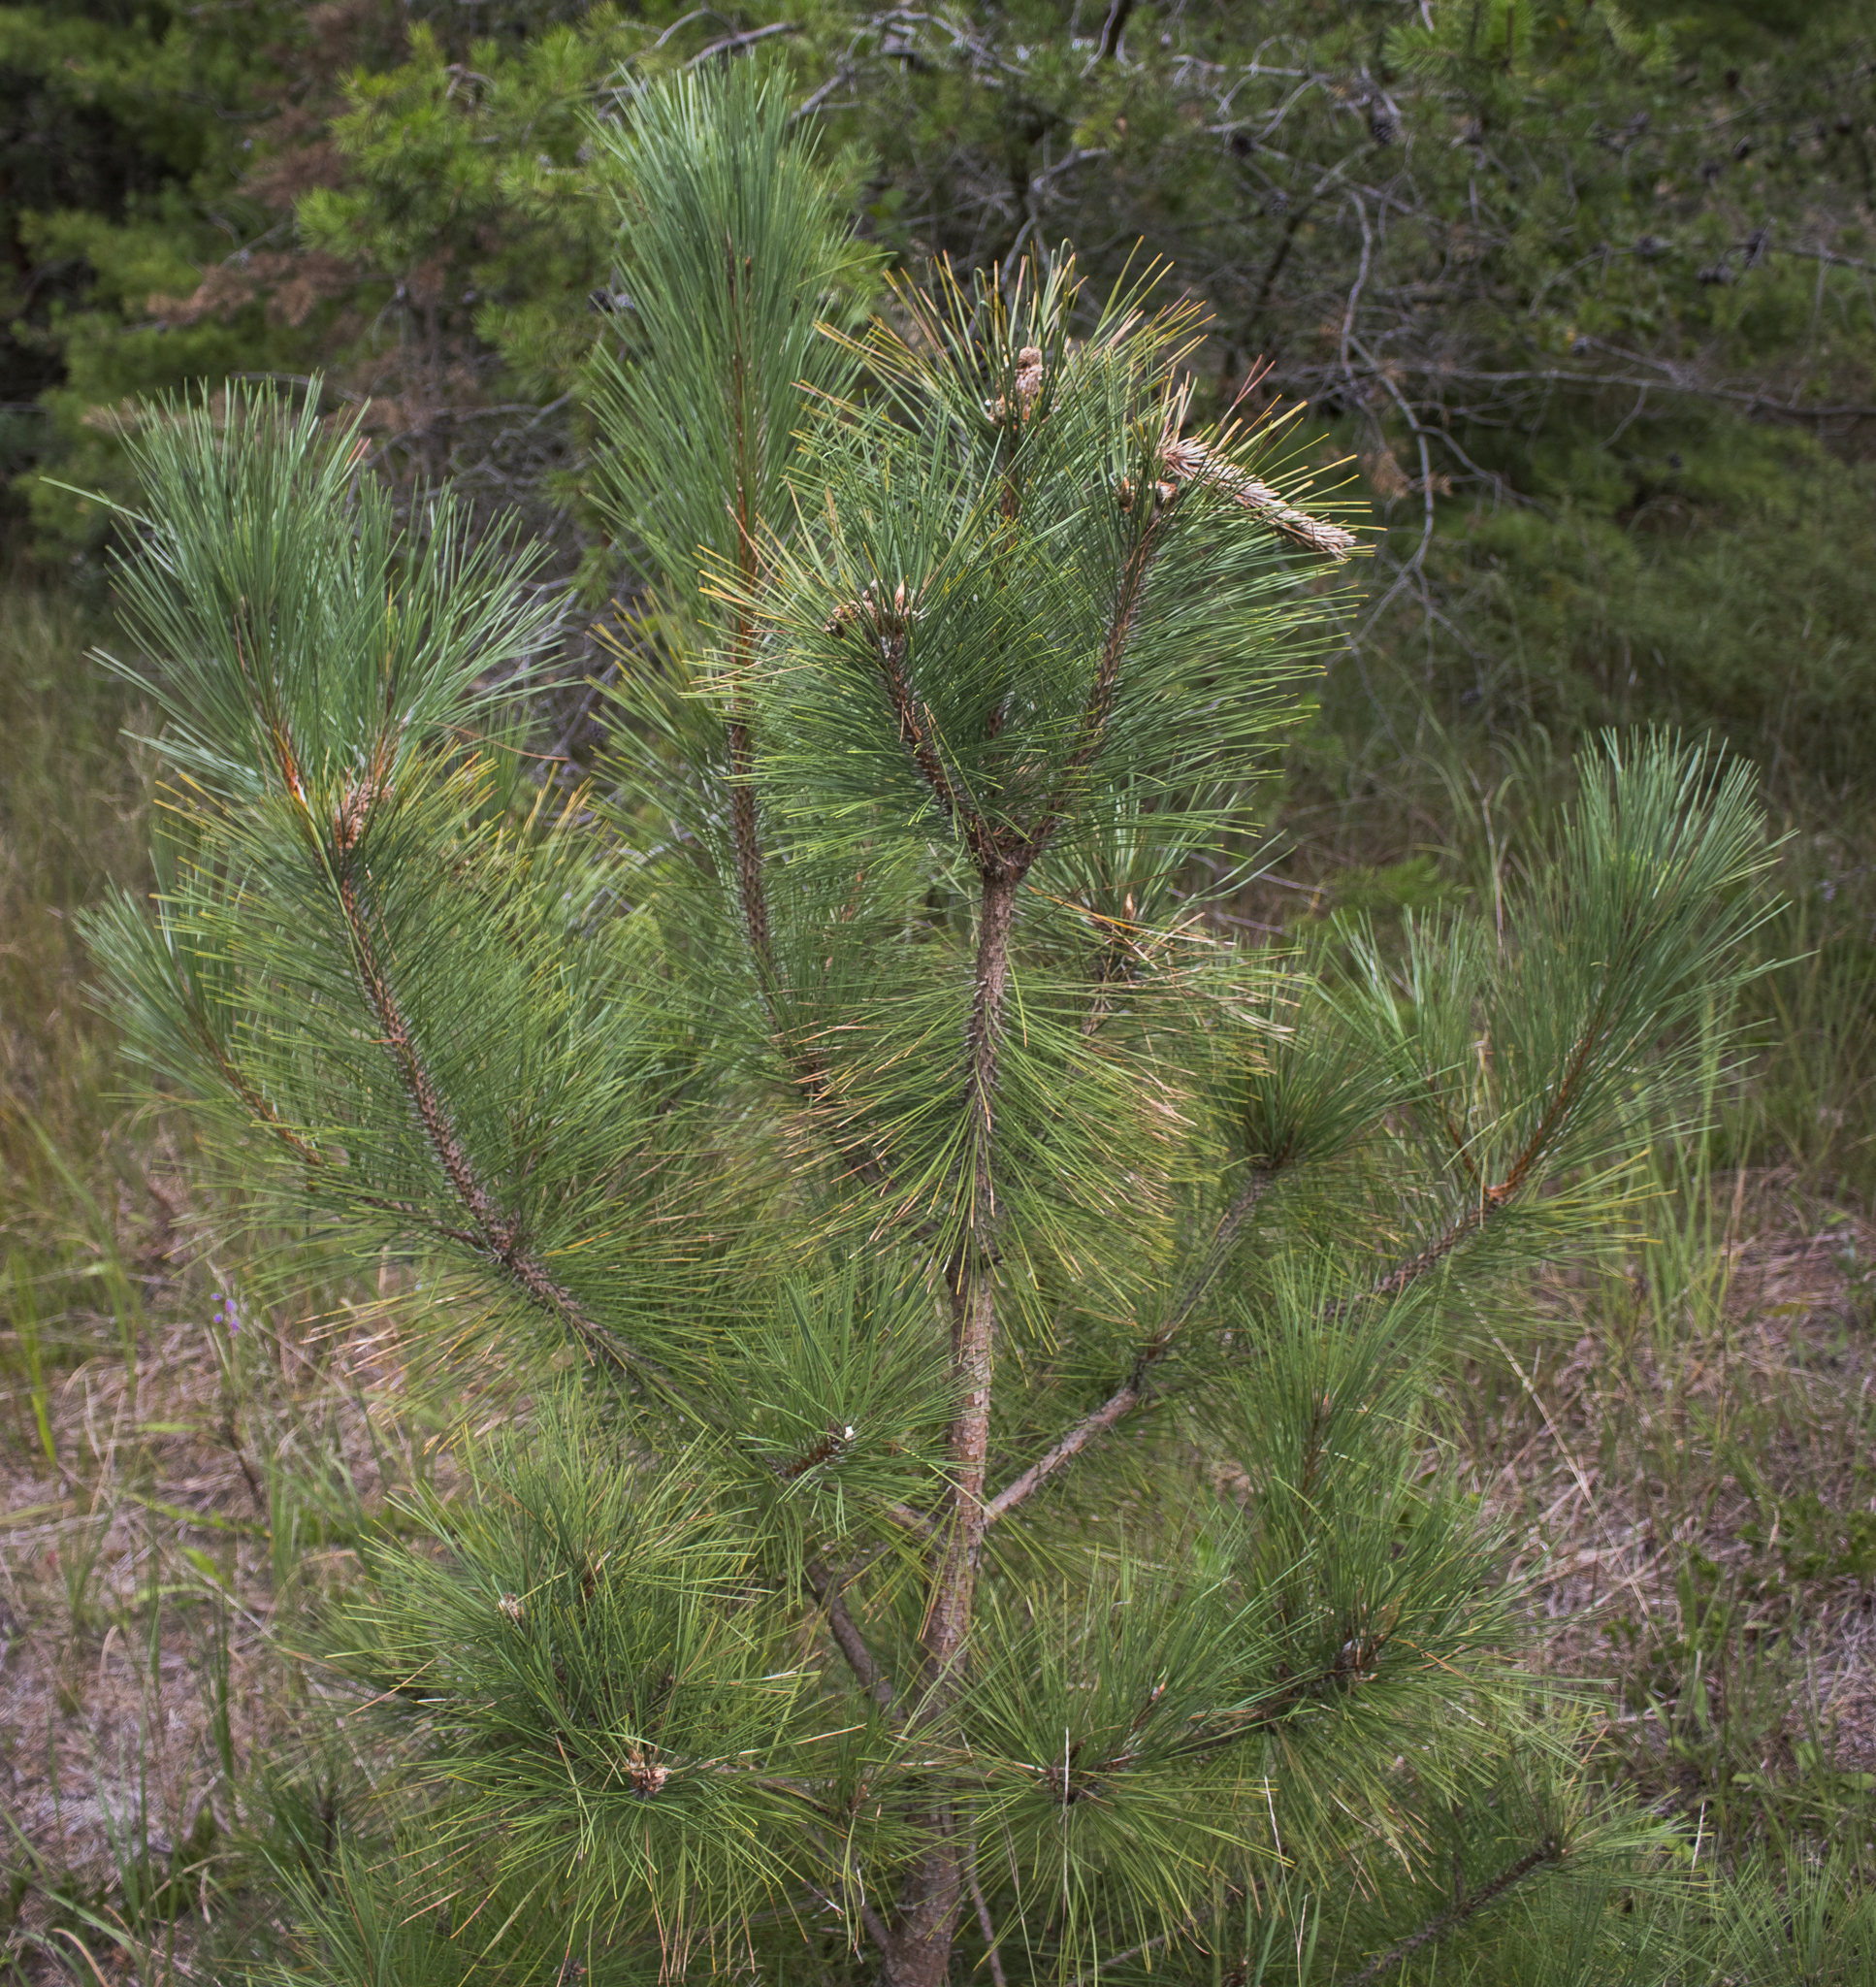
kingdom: Plantae
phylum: Tracheophyta
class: Pinopsida
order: Pinales
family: Pinaceae
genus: Pinus
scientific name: Pinus resinosa
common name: Norway pine
